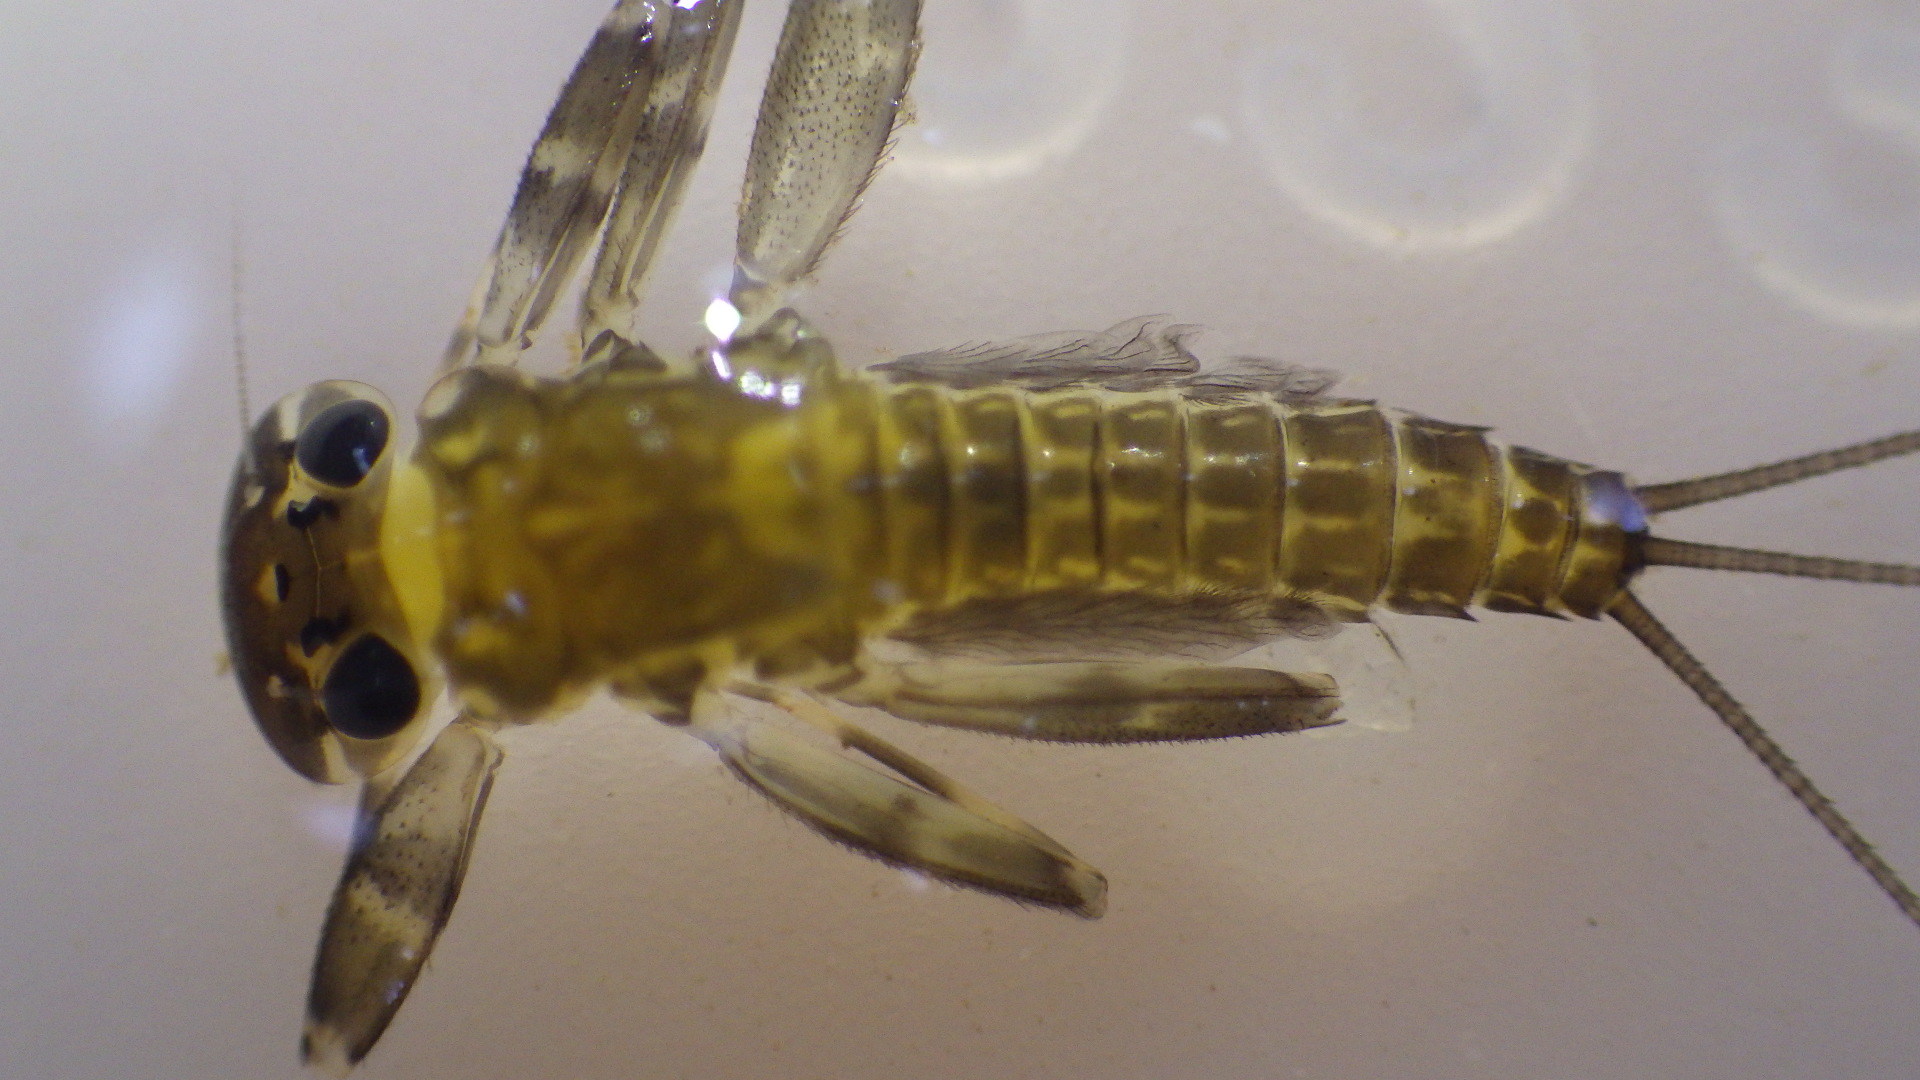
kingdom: Animalia
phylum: Arthropoda
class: Insecta
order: Ephemeroptera
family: Heptageniidae
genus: Stenacron
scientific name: Stenacron interpunctatum
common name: Orange cahill
